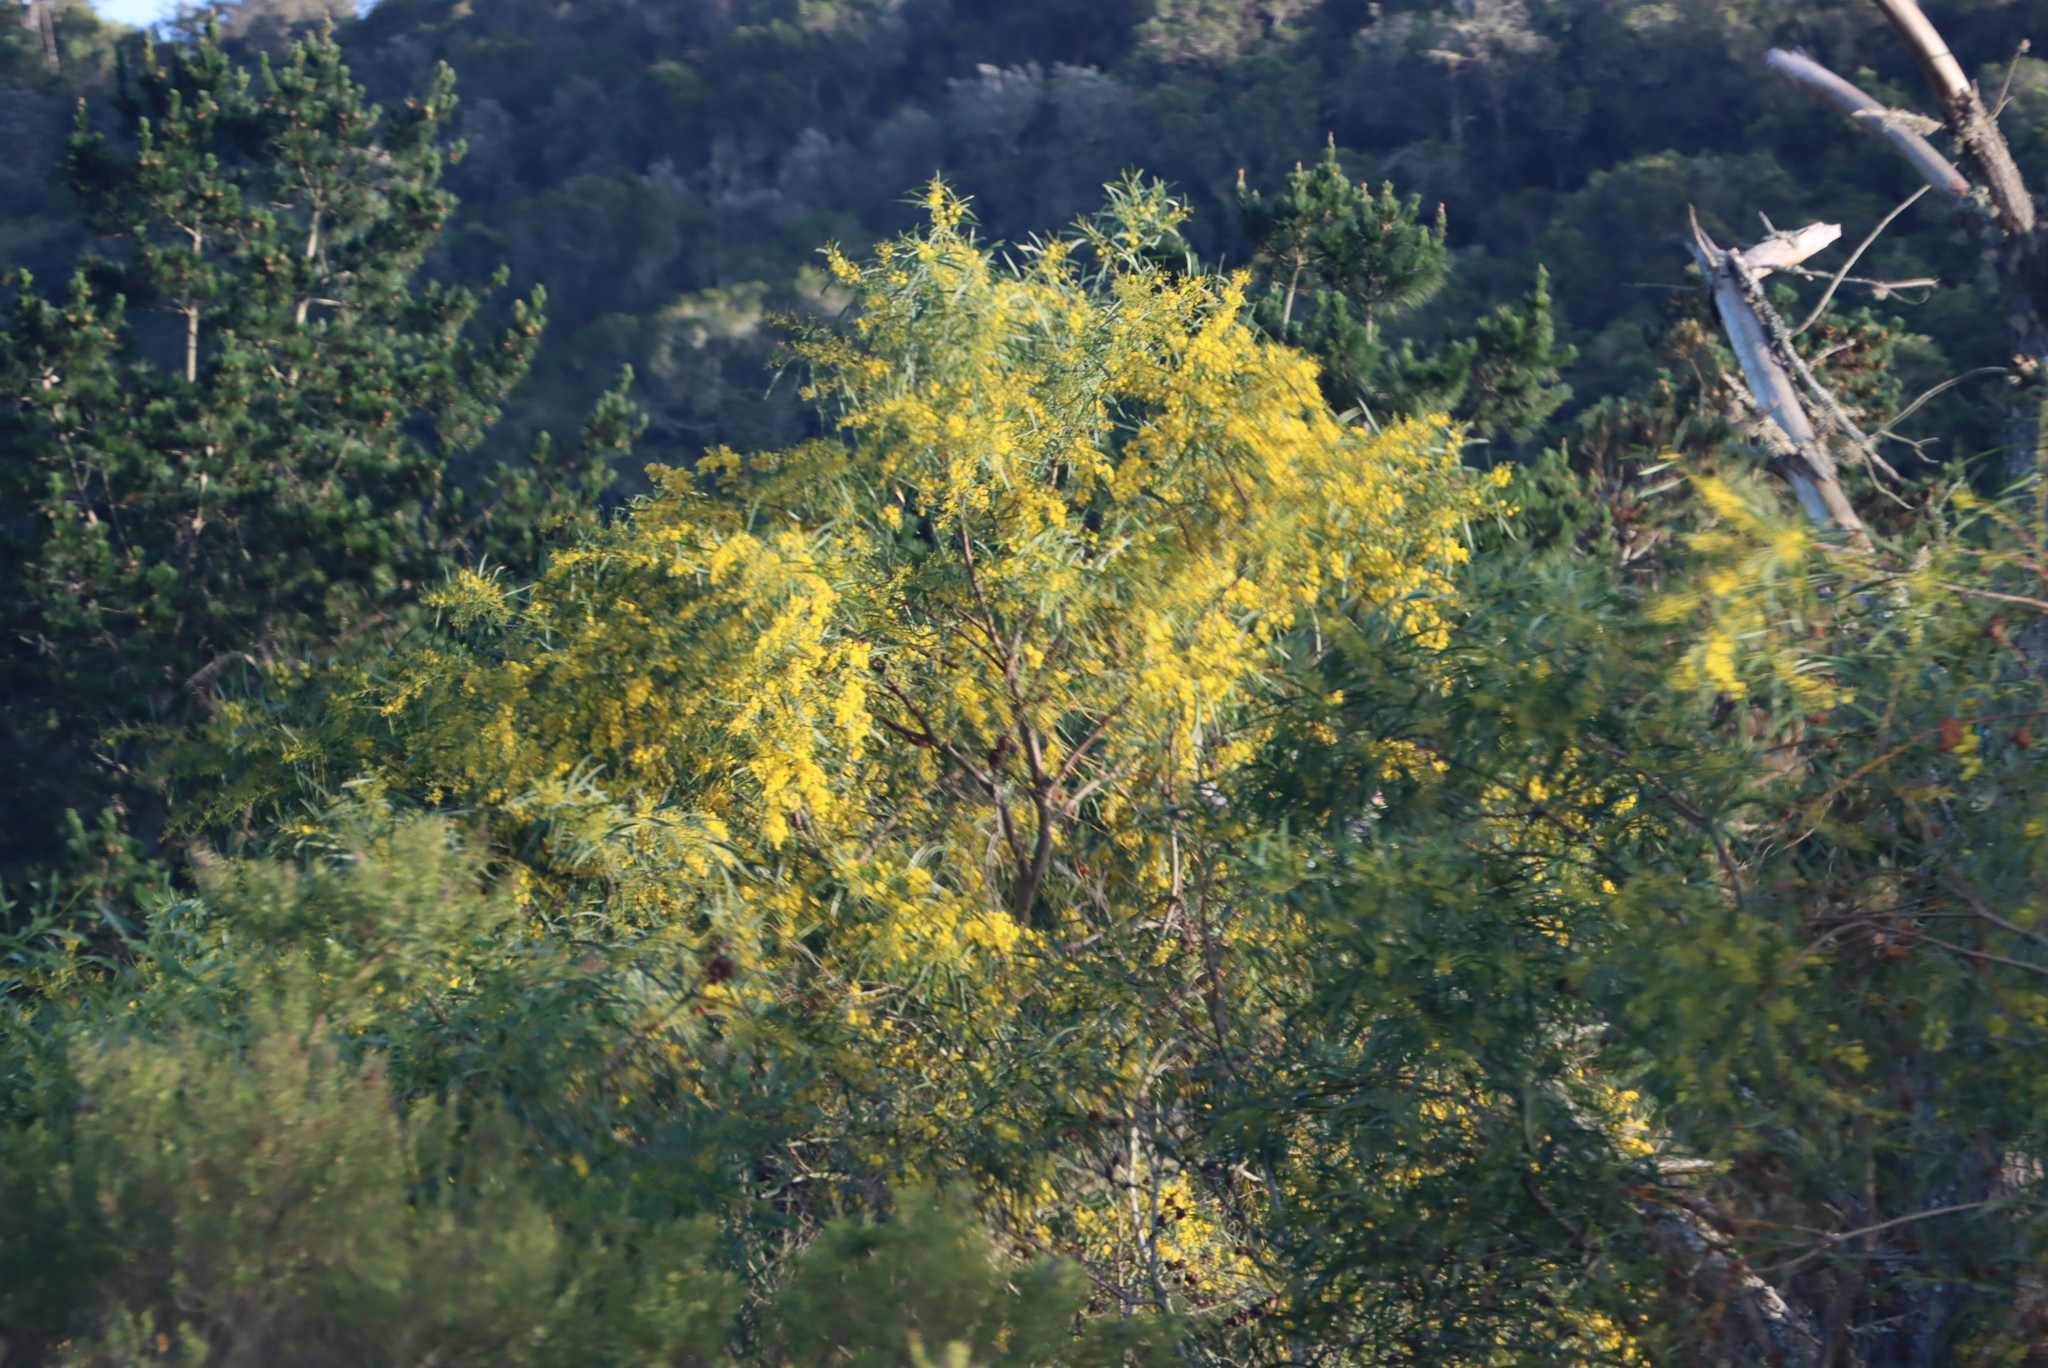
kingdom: Plantae
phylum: Tracheophyta
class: Magnoliopsida
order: Fabales
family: Fabaceae
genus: Acacia
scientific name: Acacia saligna
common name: Orange wattle
